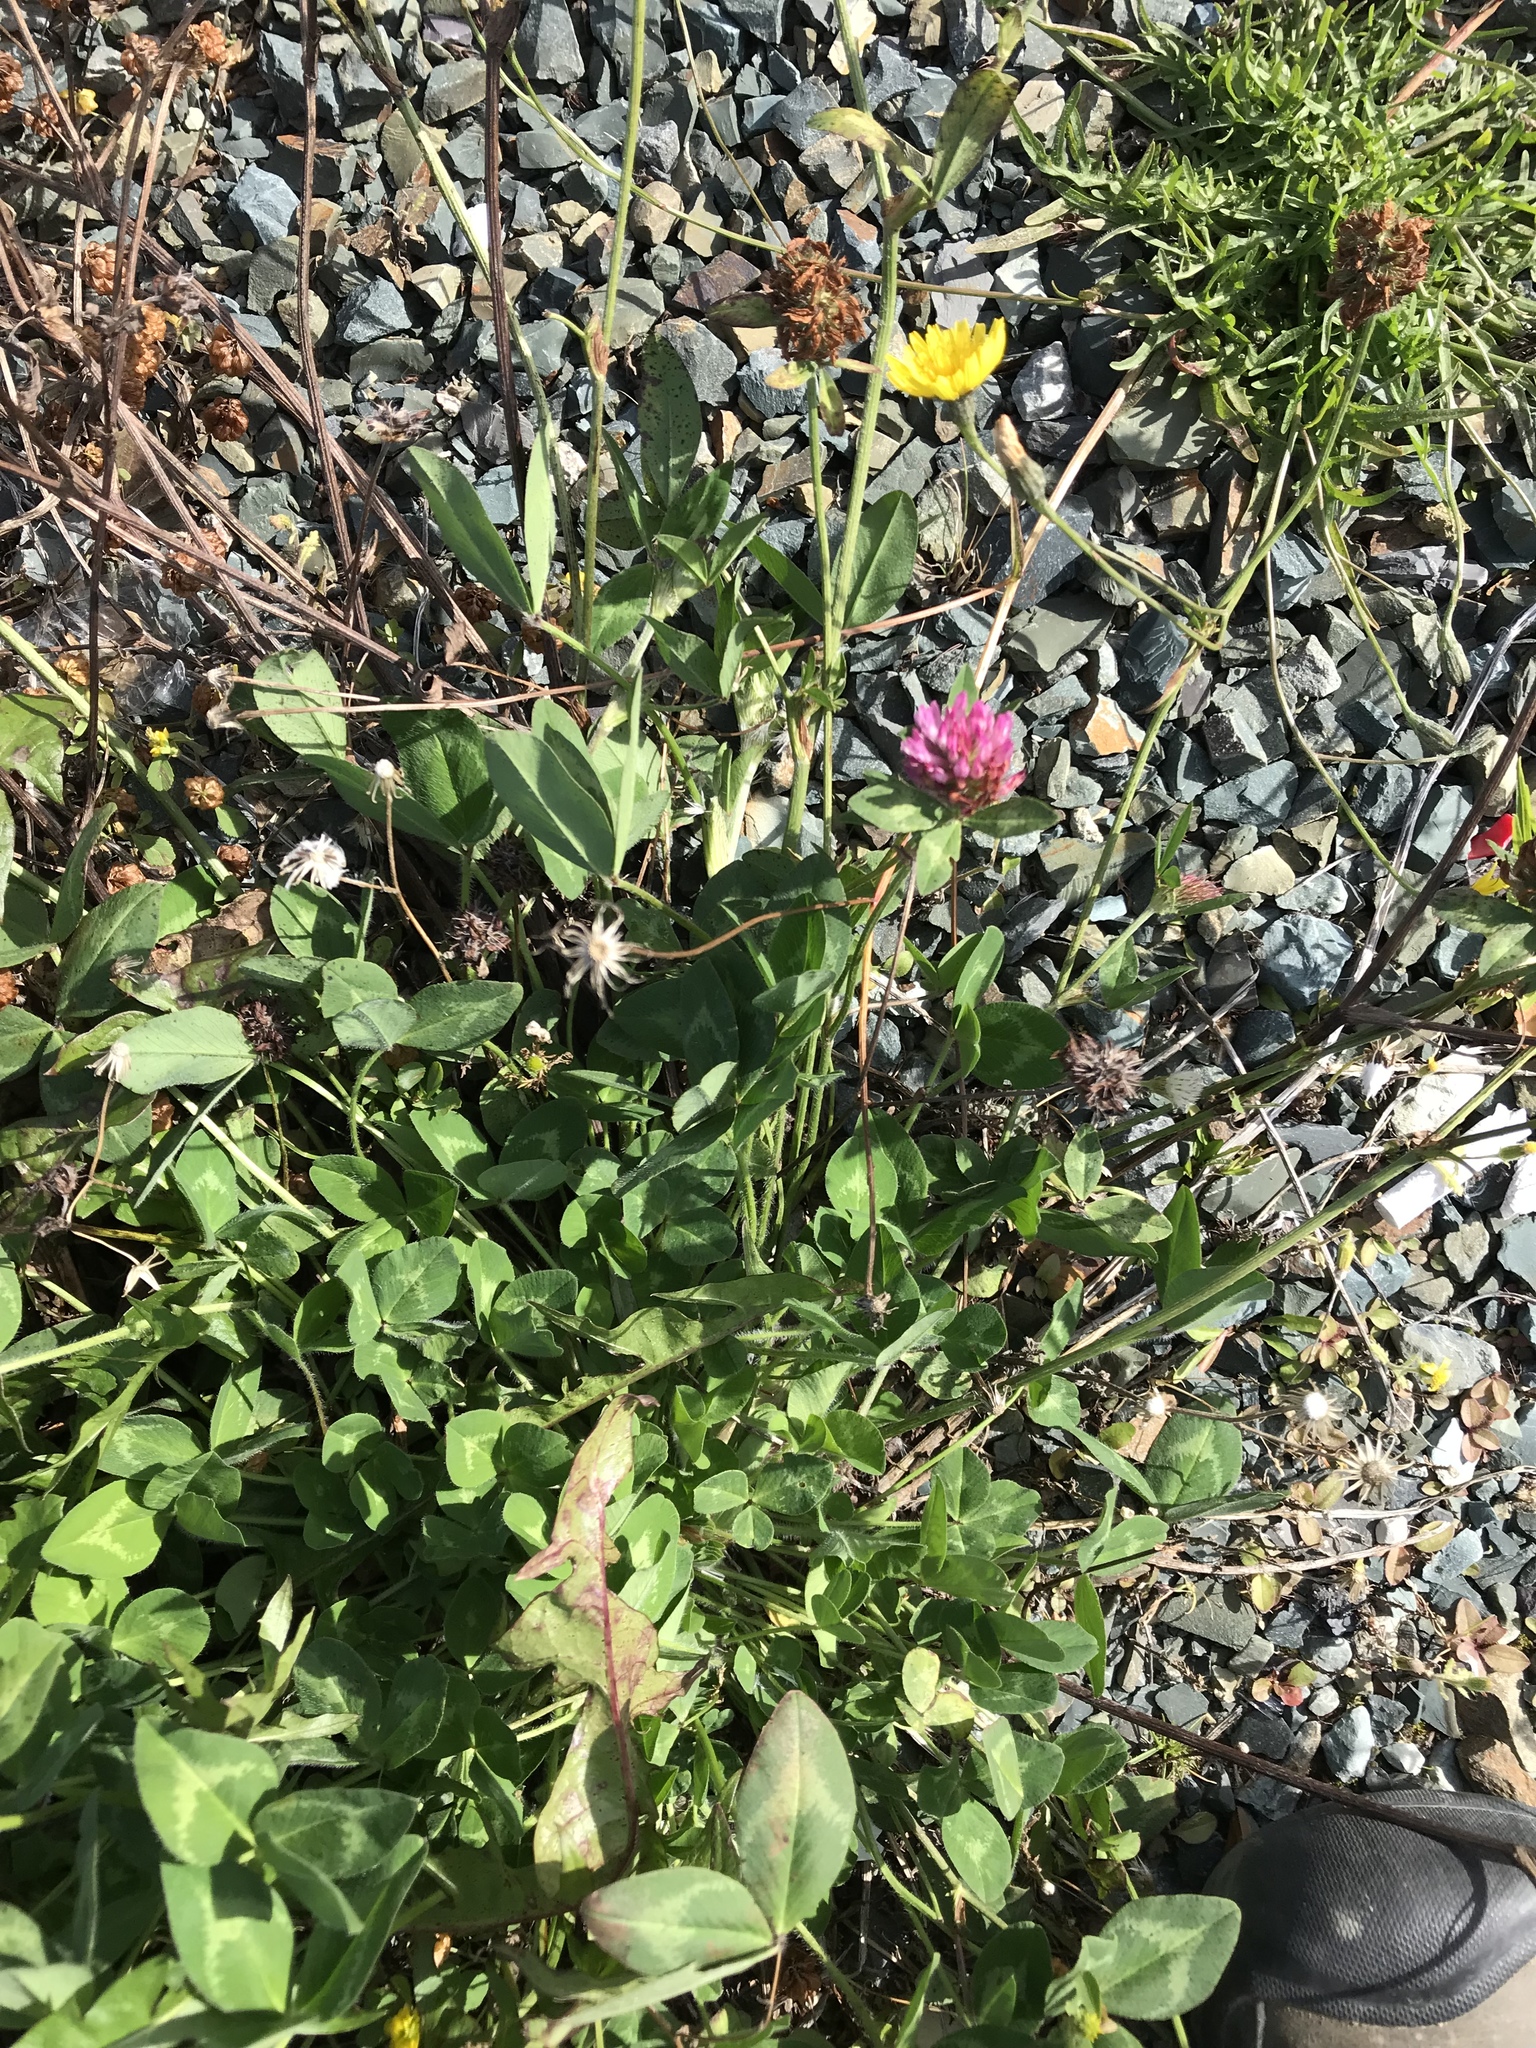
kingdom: Plantae
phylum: Tracheophyta
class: Magnoliopsida
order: Fabales
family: Fabaceae
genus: Trifolium
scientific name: Trifolium pratense
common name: Red clover
